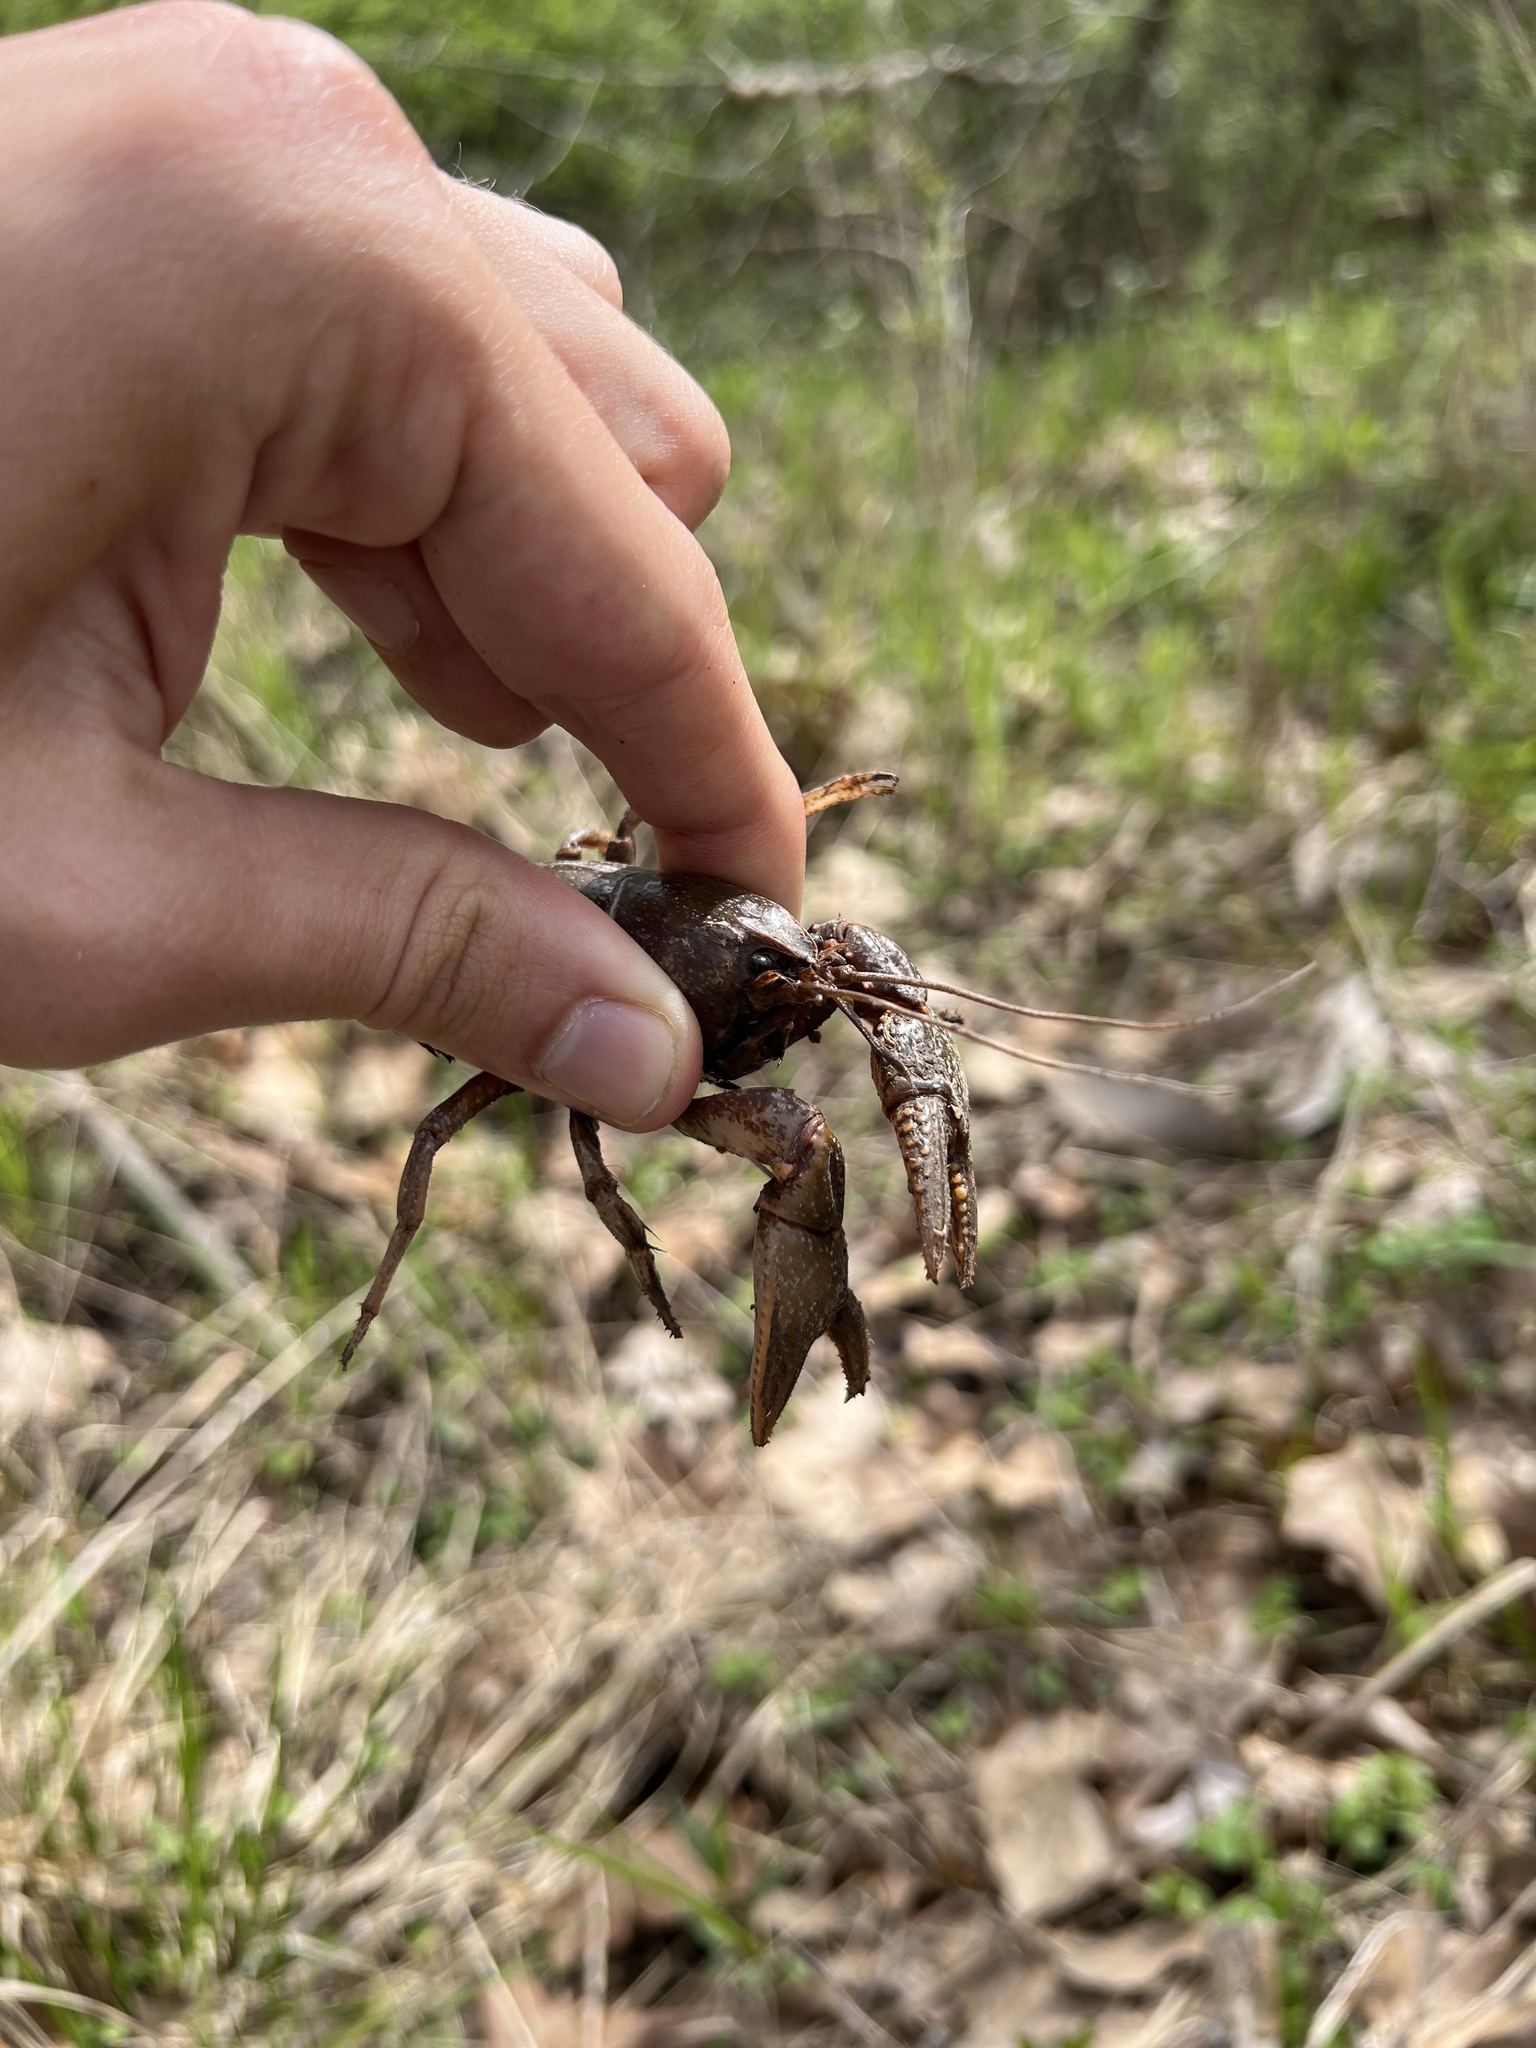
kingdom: Animalia
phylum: Arthropoda
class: Malacostraca
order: Decapoda
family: Cambaridae
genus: Lacunicambarus
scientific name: Lacunicambarus diogenes
